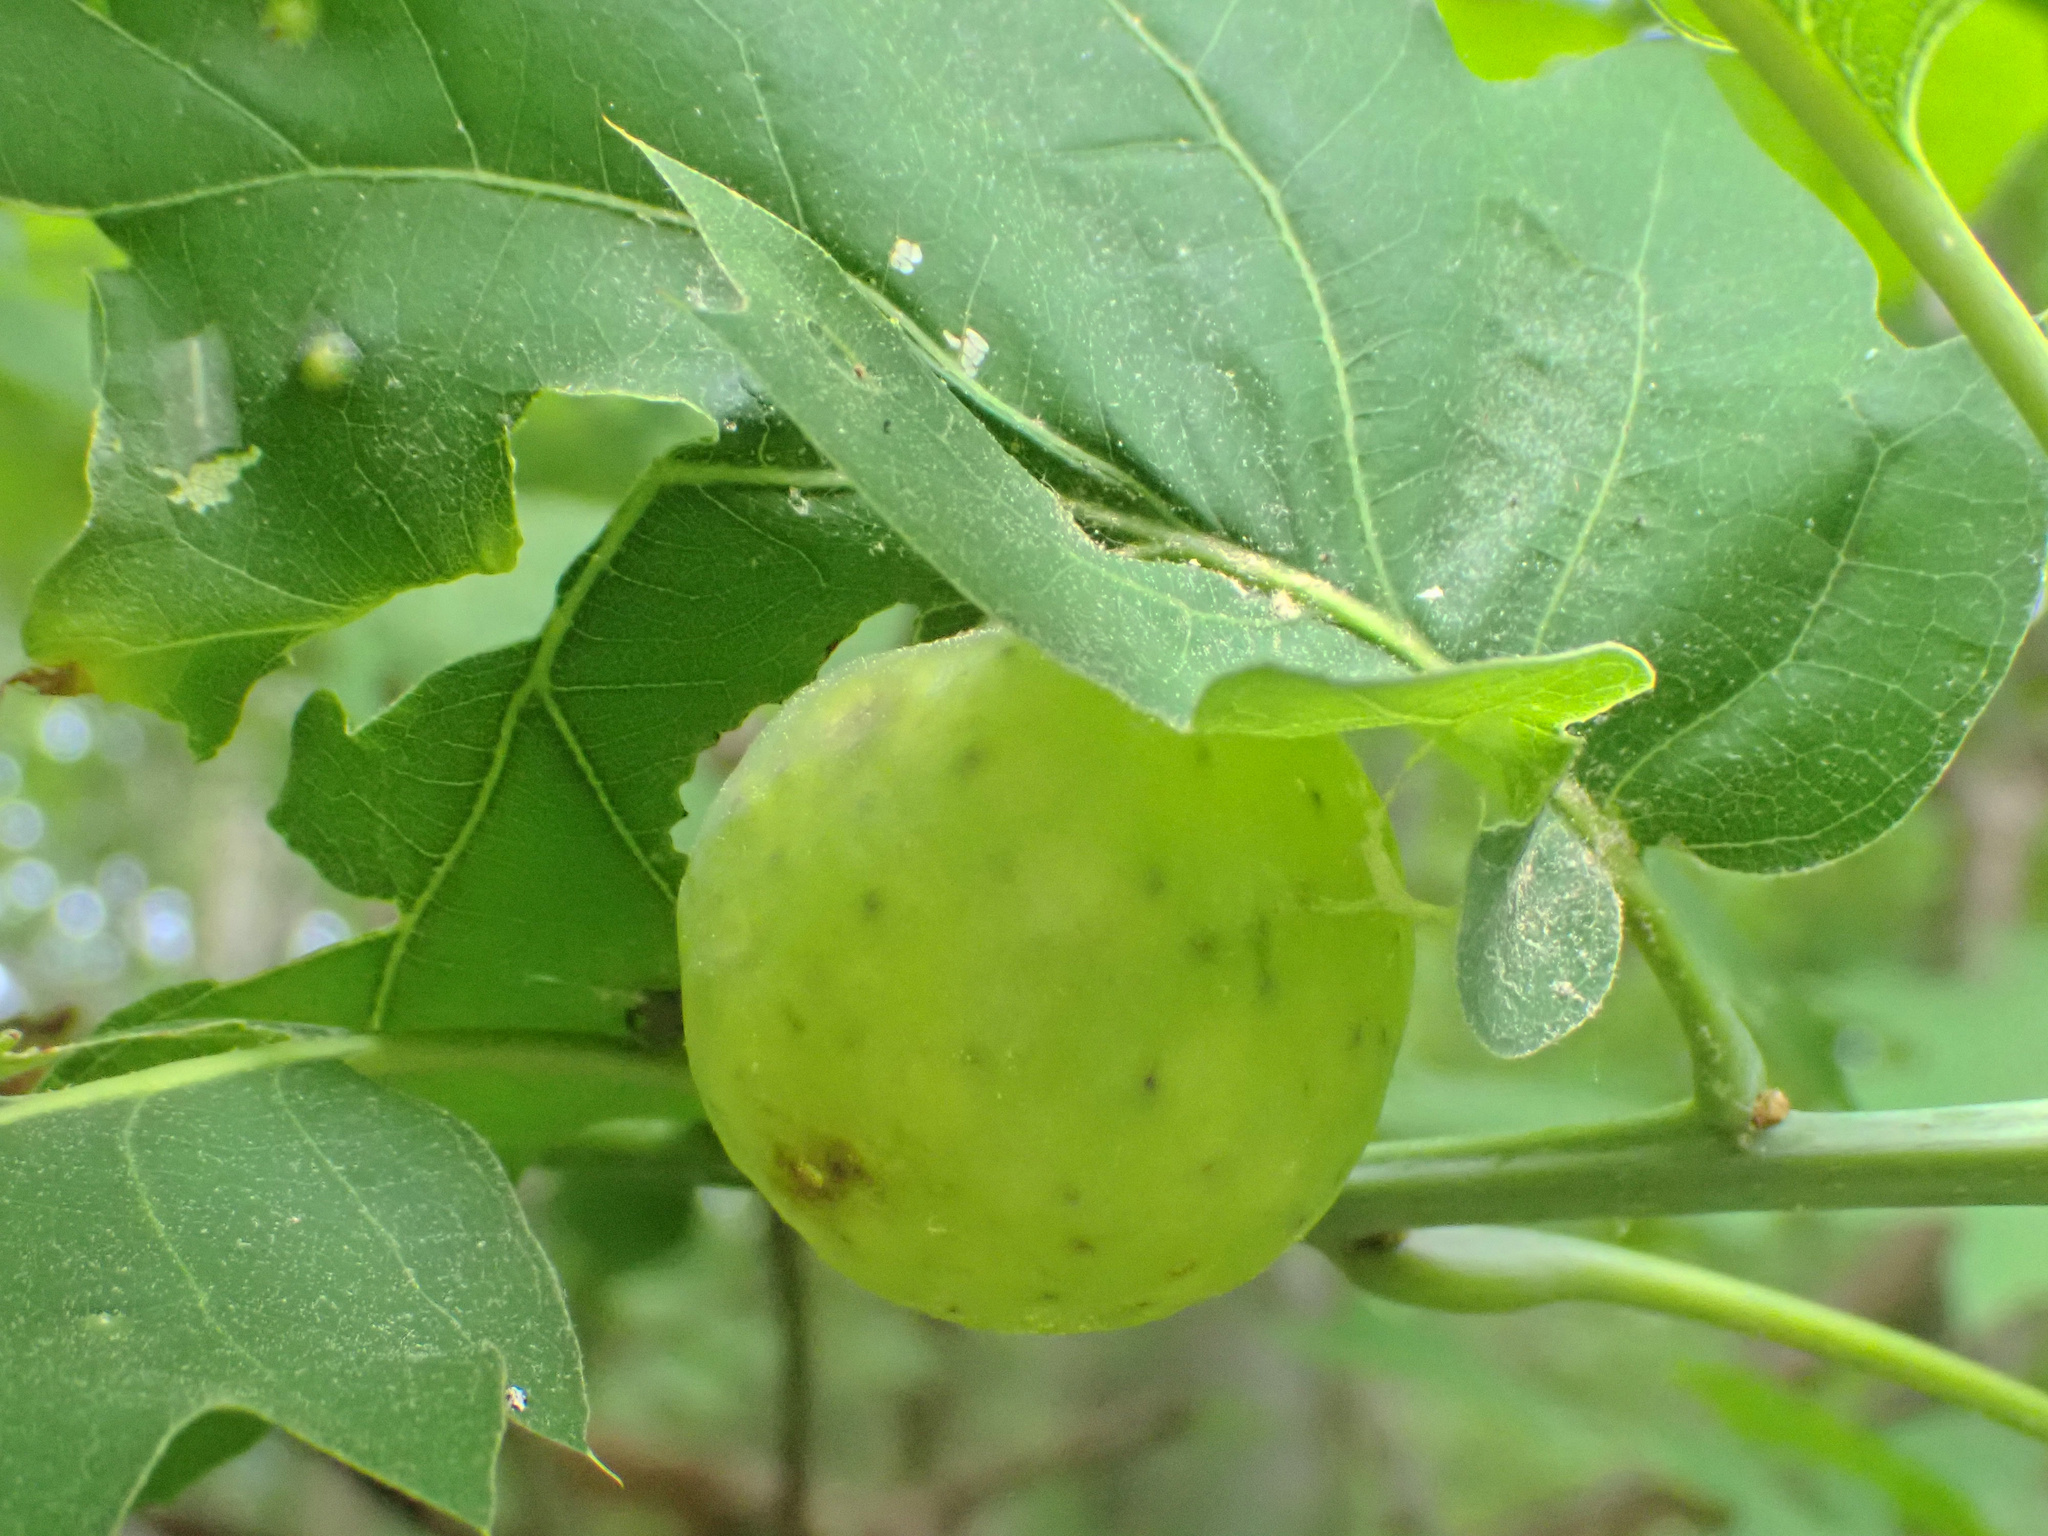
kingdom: Animalia
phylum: Arthropoda
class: Insecta
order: Hymenoptera
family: Cynipidae
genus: Amphibolips
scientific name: Amphibolips
